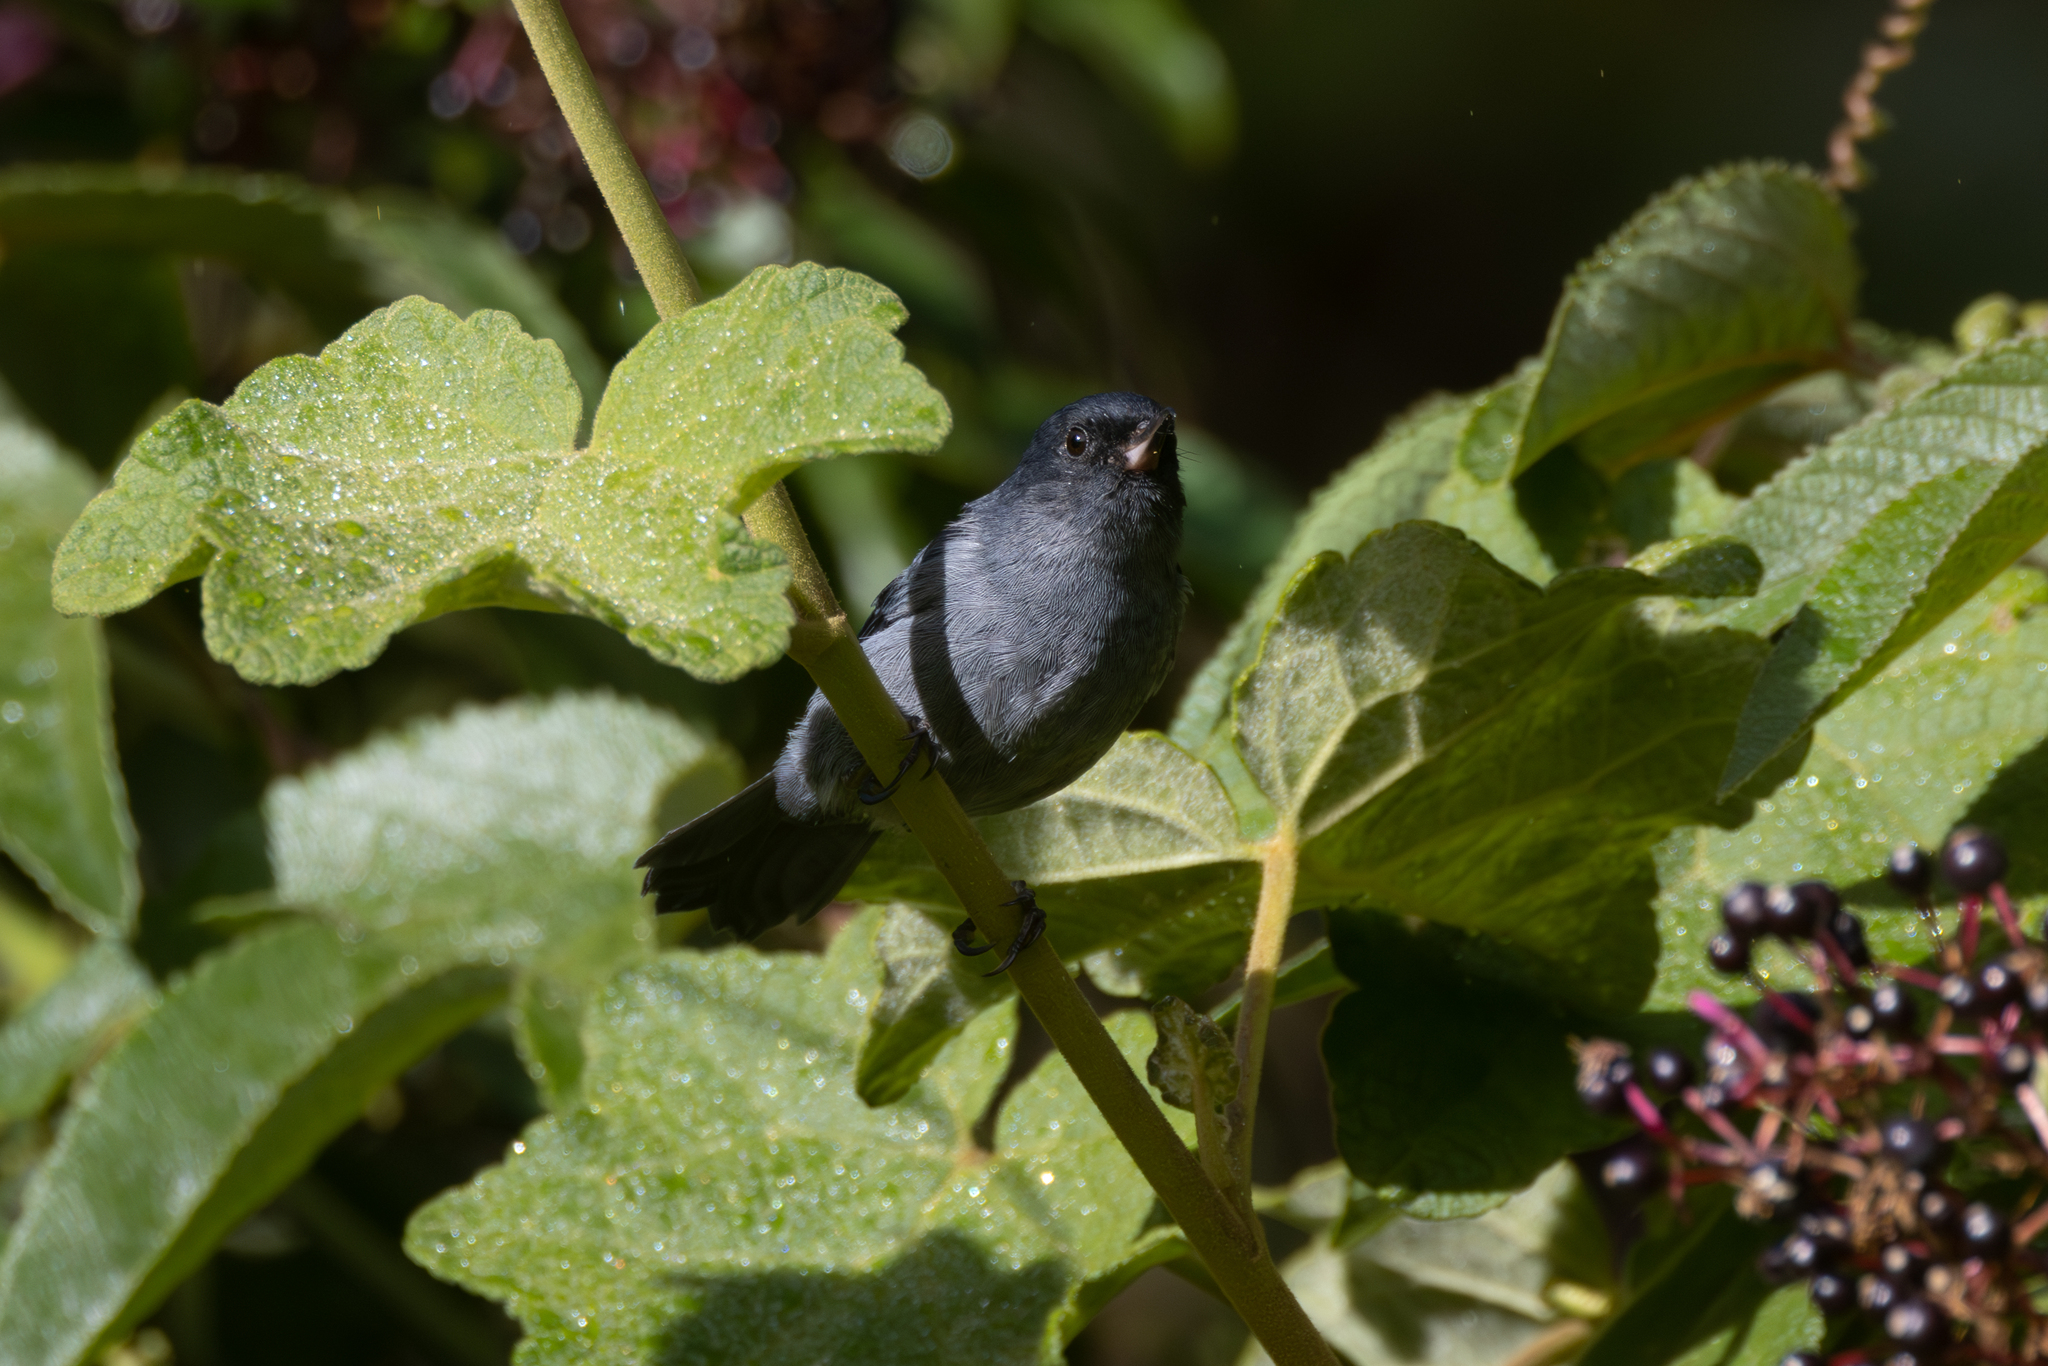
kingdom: Animalia
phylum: Chordata
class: Aves
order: Passeriformes
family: Thraupidae
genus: Diglossa
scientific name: Diglossa plumbea
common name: Slaty flowerpiercer
